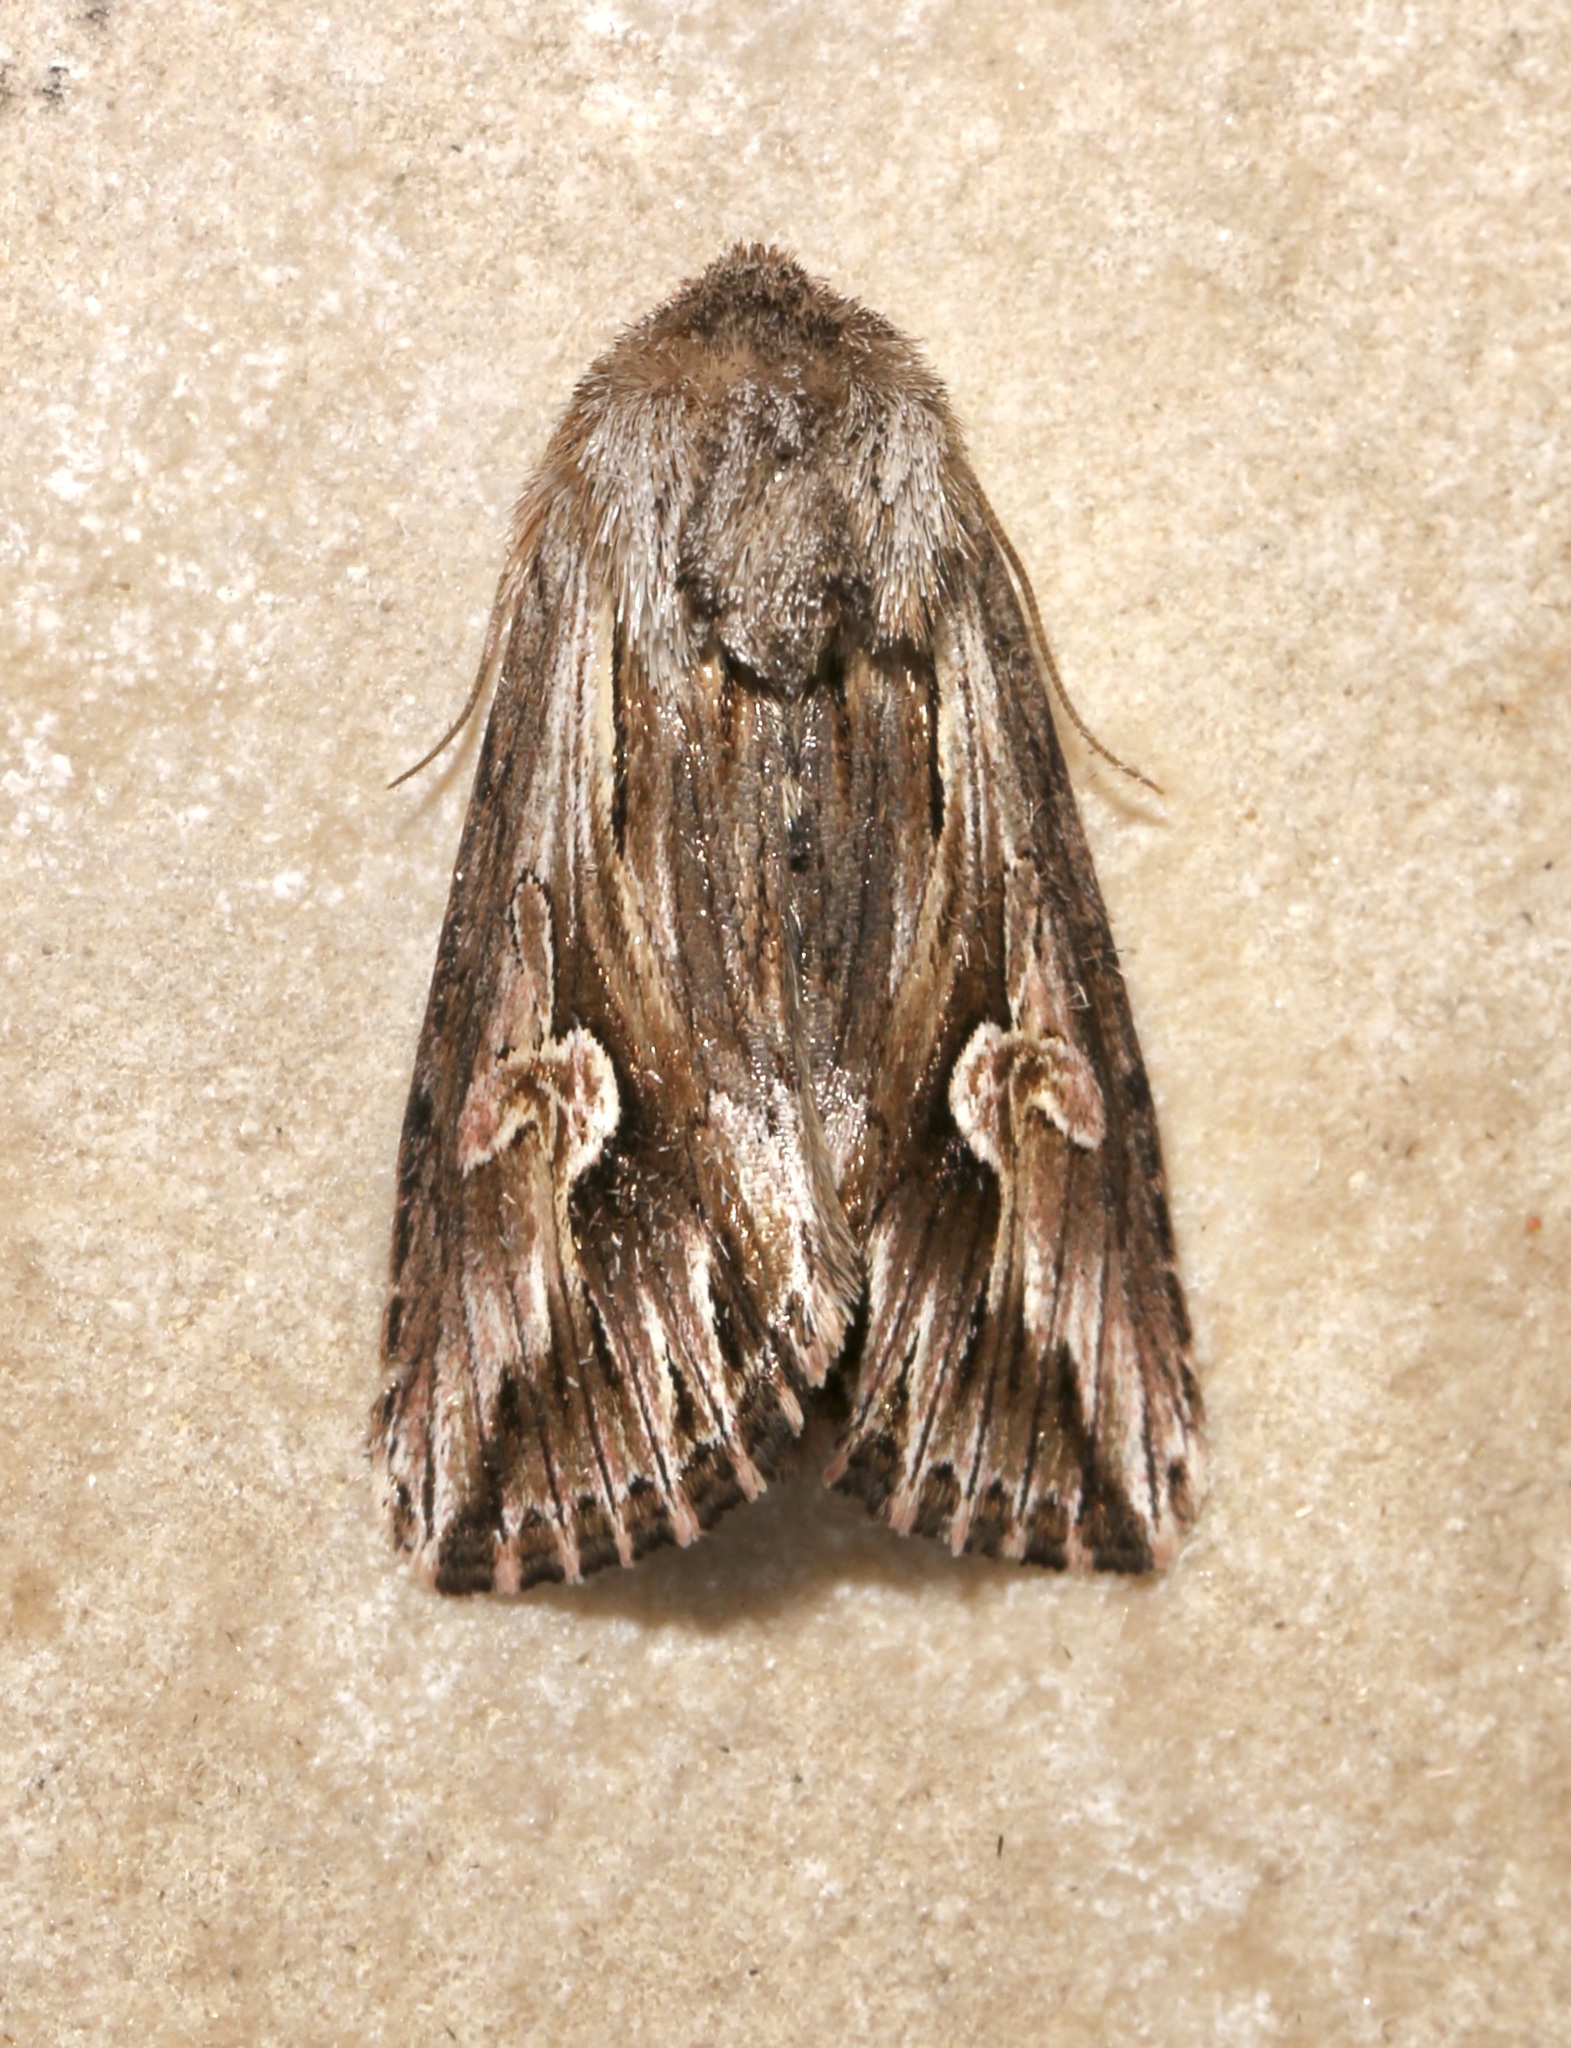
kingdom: Animalia
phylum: Arthropoda
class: Insecta
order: Lepidoptera
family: Noctuidae
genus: Nedra
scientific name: Nedra ramosula
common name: Gray half-spot
